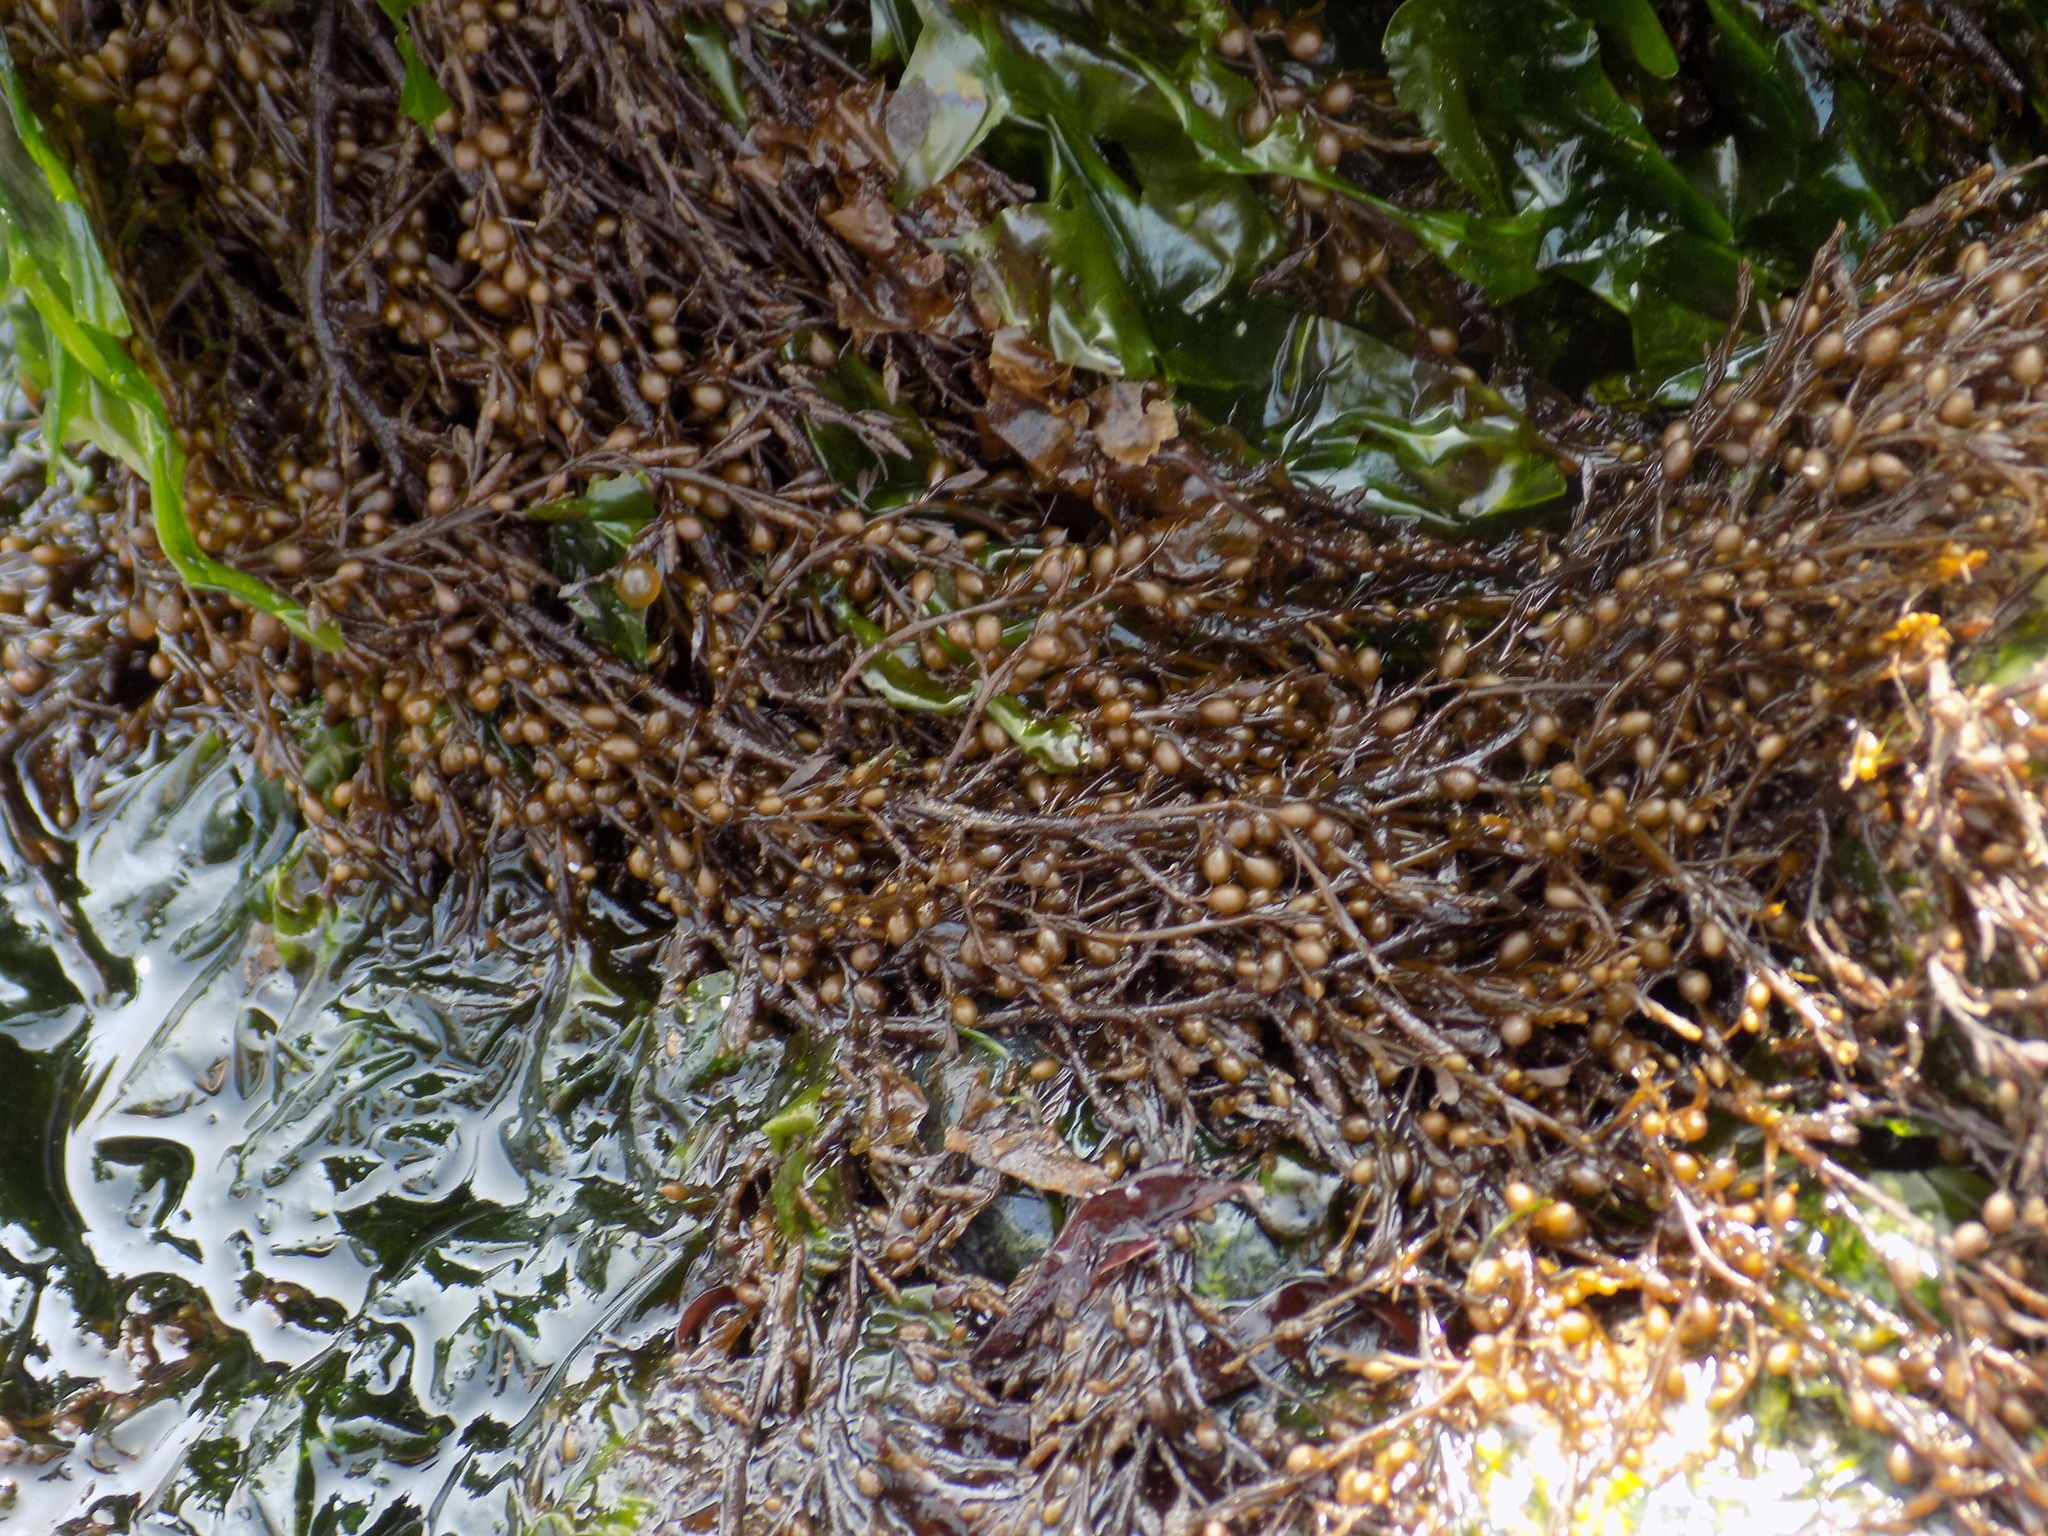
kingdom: Chromista
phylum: Ochrophyta
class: Phaeophyceae
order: Fucales
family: Sargassaceae
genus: Sargassum
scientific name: Sargassum muticum
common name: Japweed
